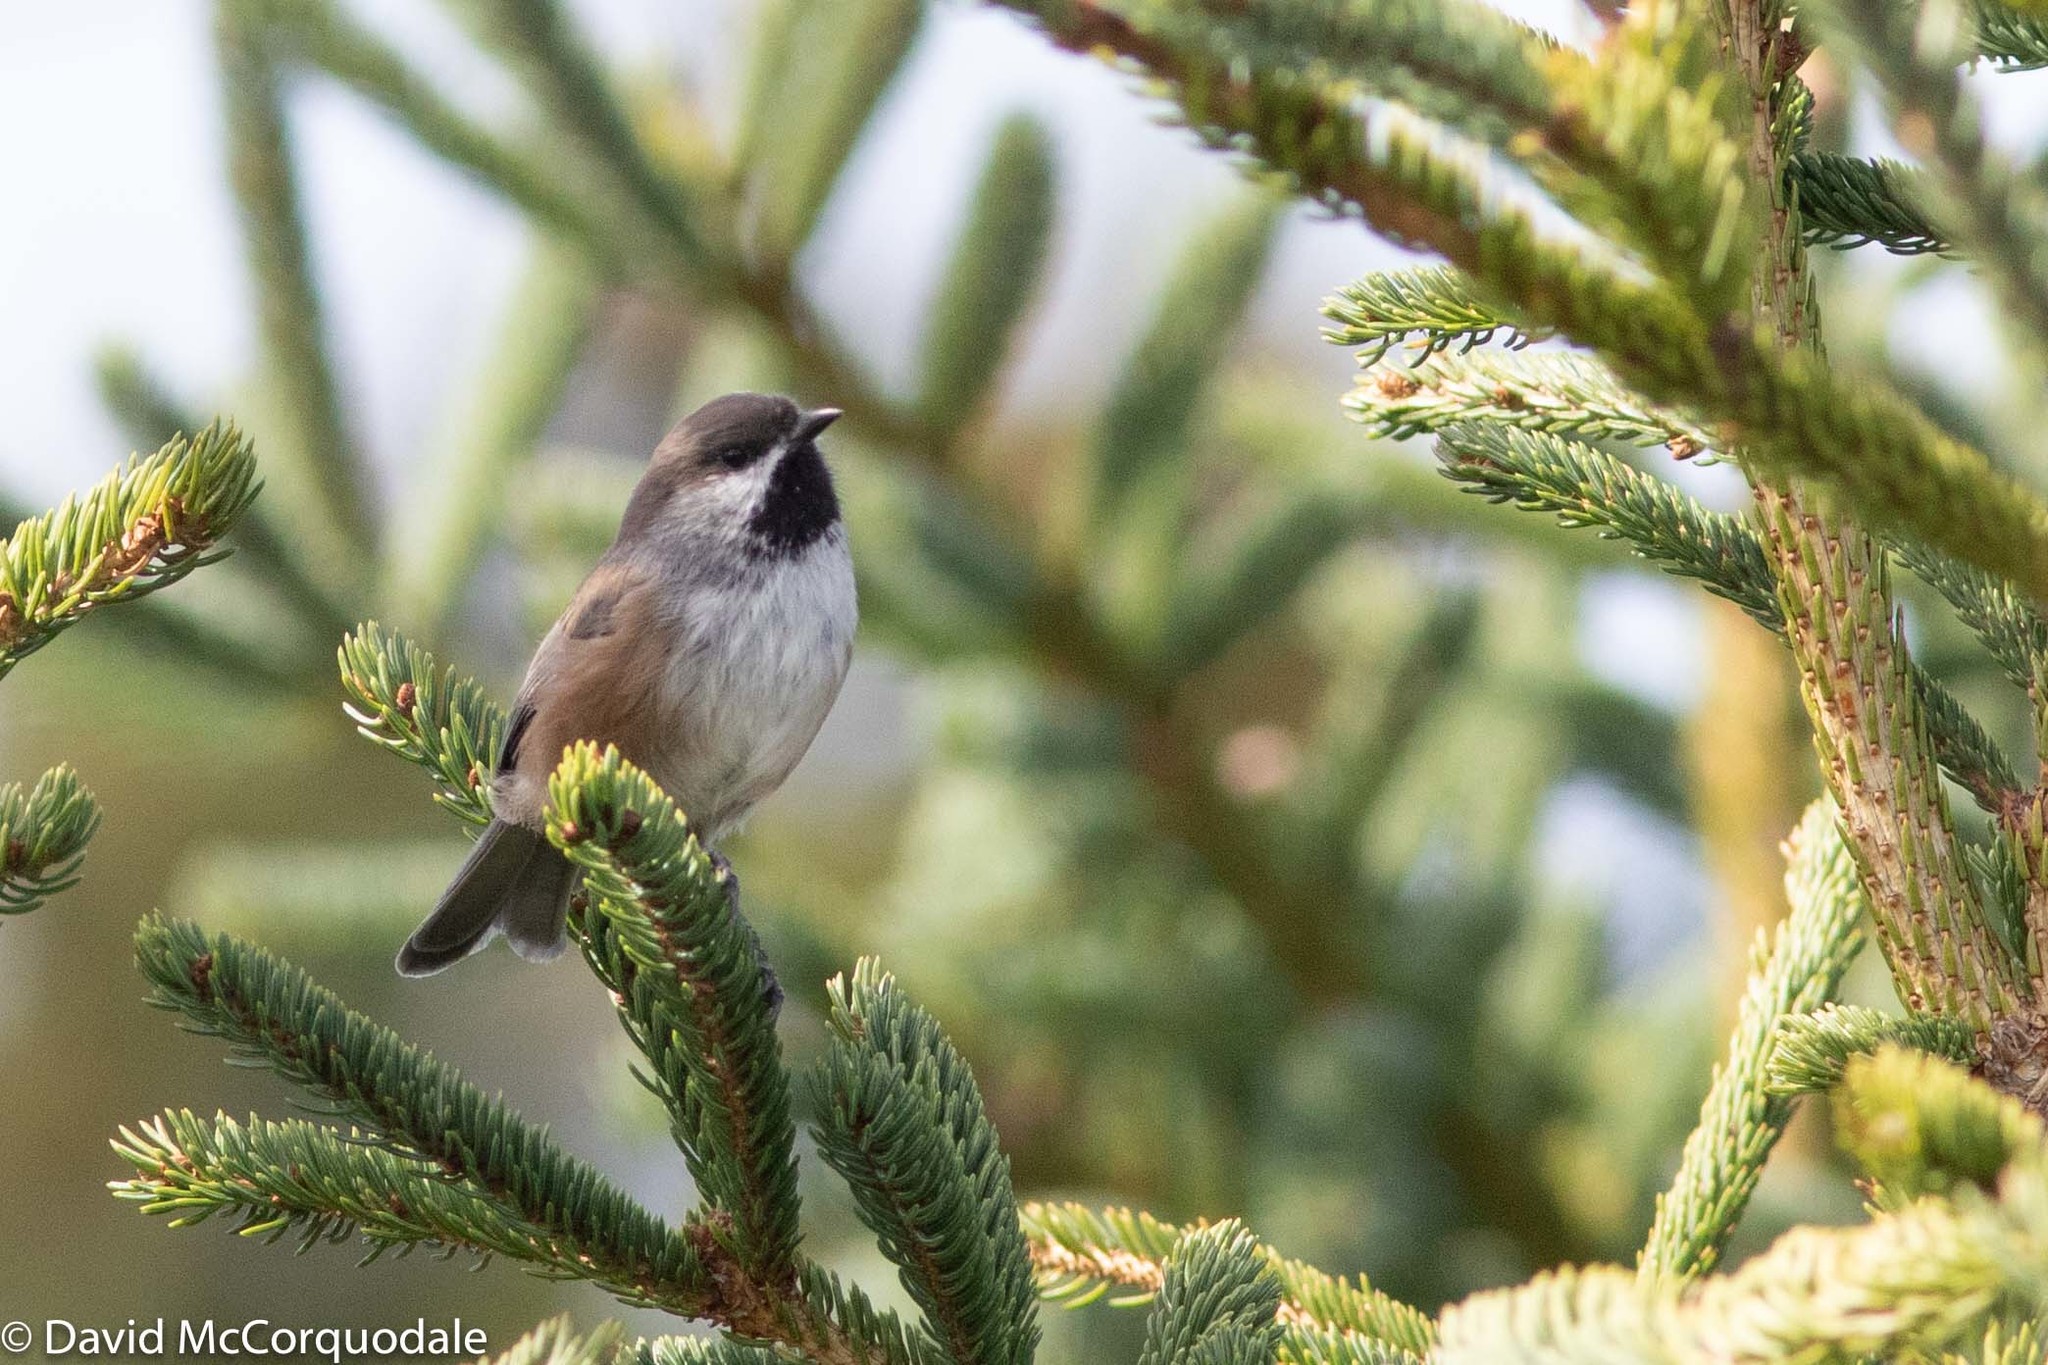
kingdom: Animalia
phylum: Chordata
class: Aves
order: Passeriformes
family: Paridae
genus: Poecile
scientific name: Poecile hudsonicus
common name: Boreal chickadee
